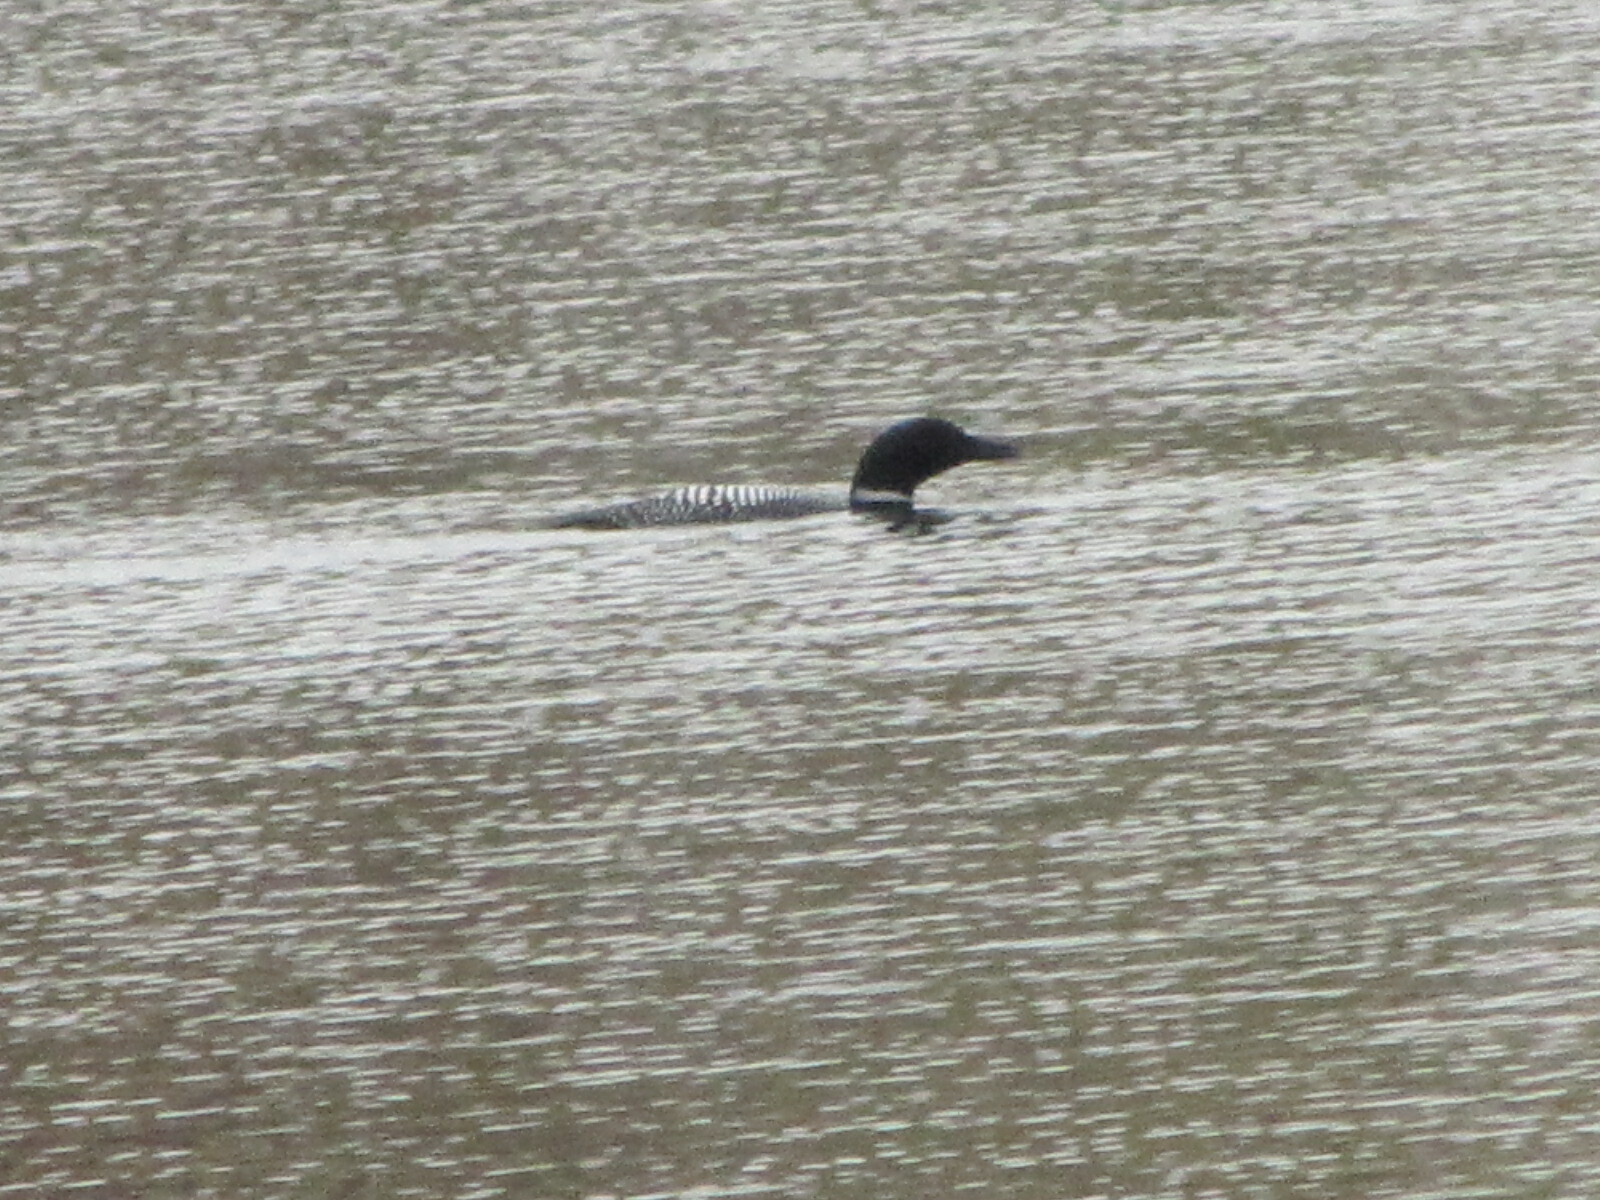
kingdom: Animalia
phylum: Chordata
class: Aves
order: Gaviiformes
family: Gaviidae
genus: Gavia
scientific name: Gavia immer
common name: Common loon
